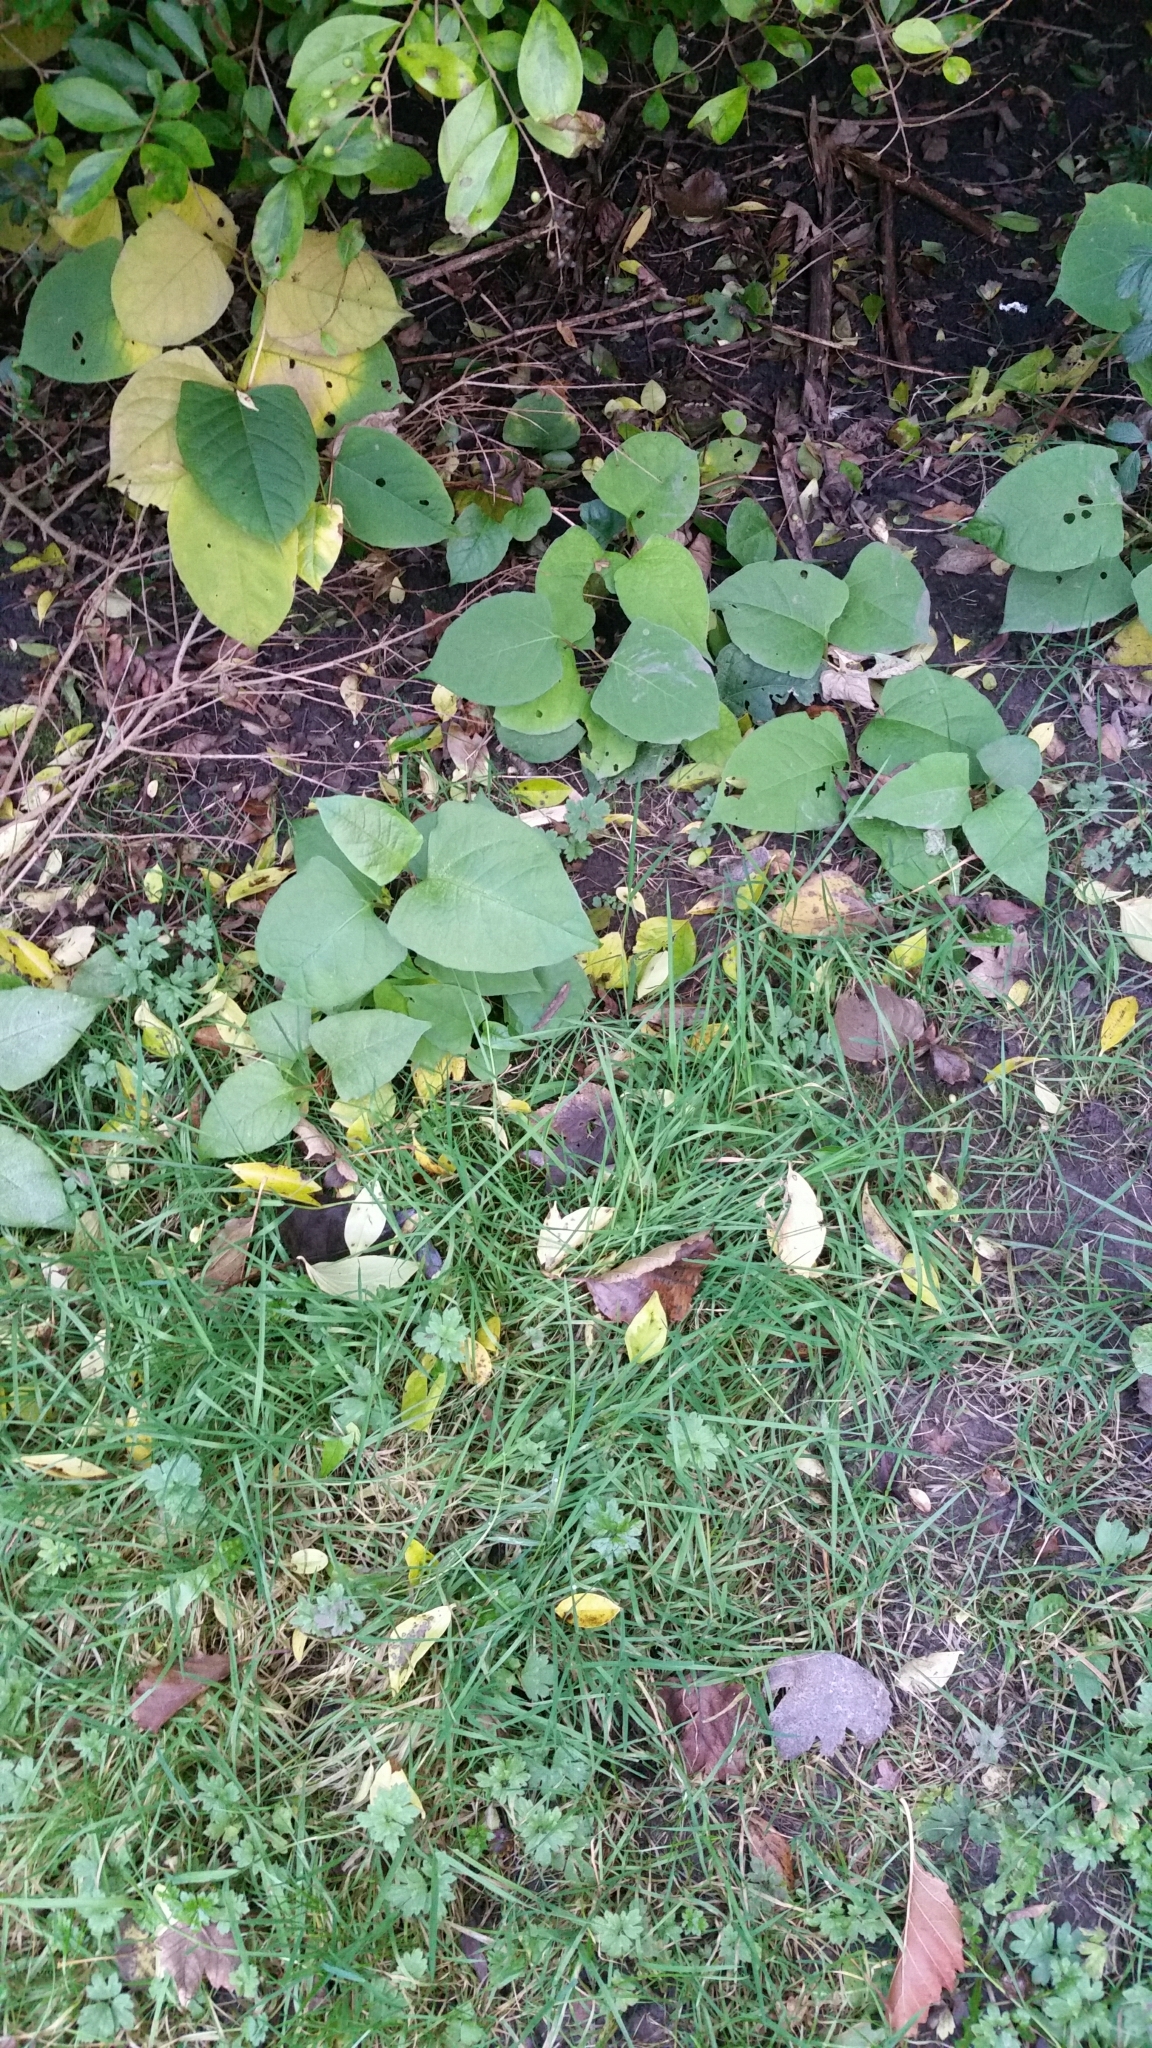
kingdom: Plantae
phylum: Tracheophyta
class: Magnoliopsida
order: Caryophyllales
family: Polygonaceae
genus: Reynoutria
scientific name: Reynoutria japonica
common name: Japanese knotweed
